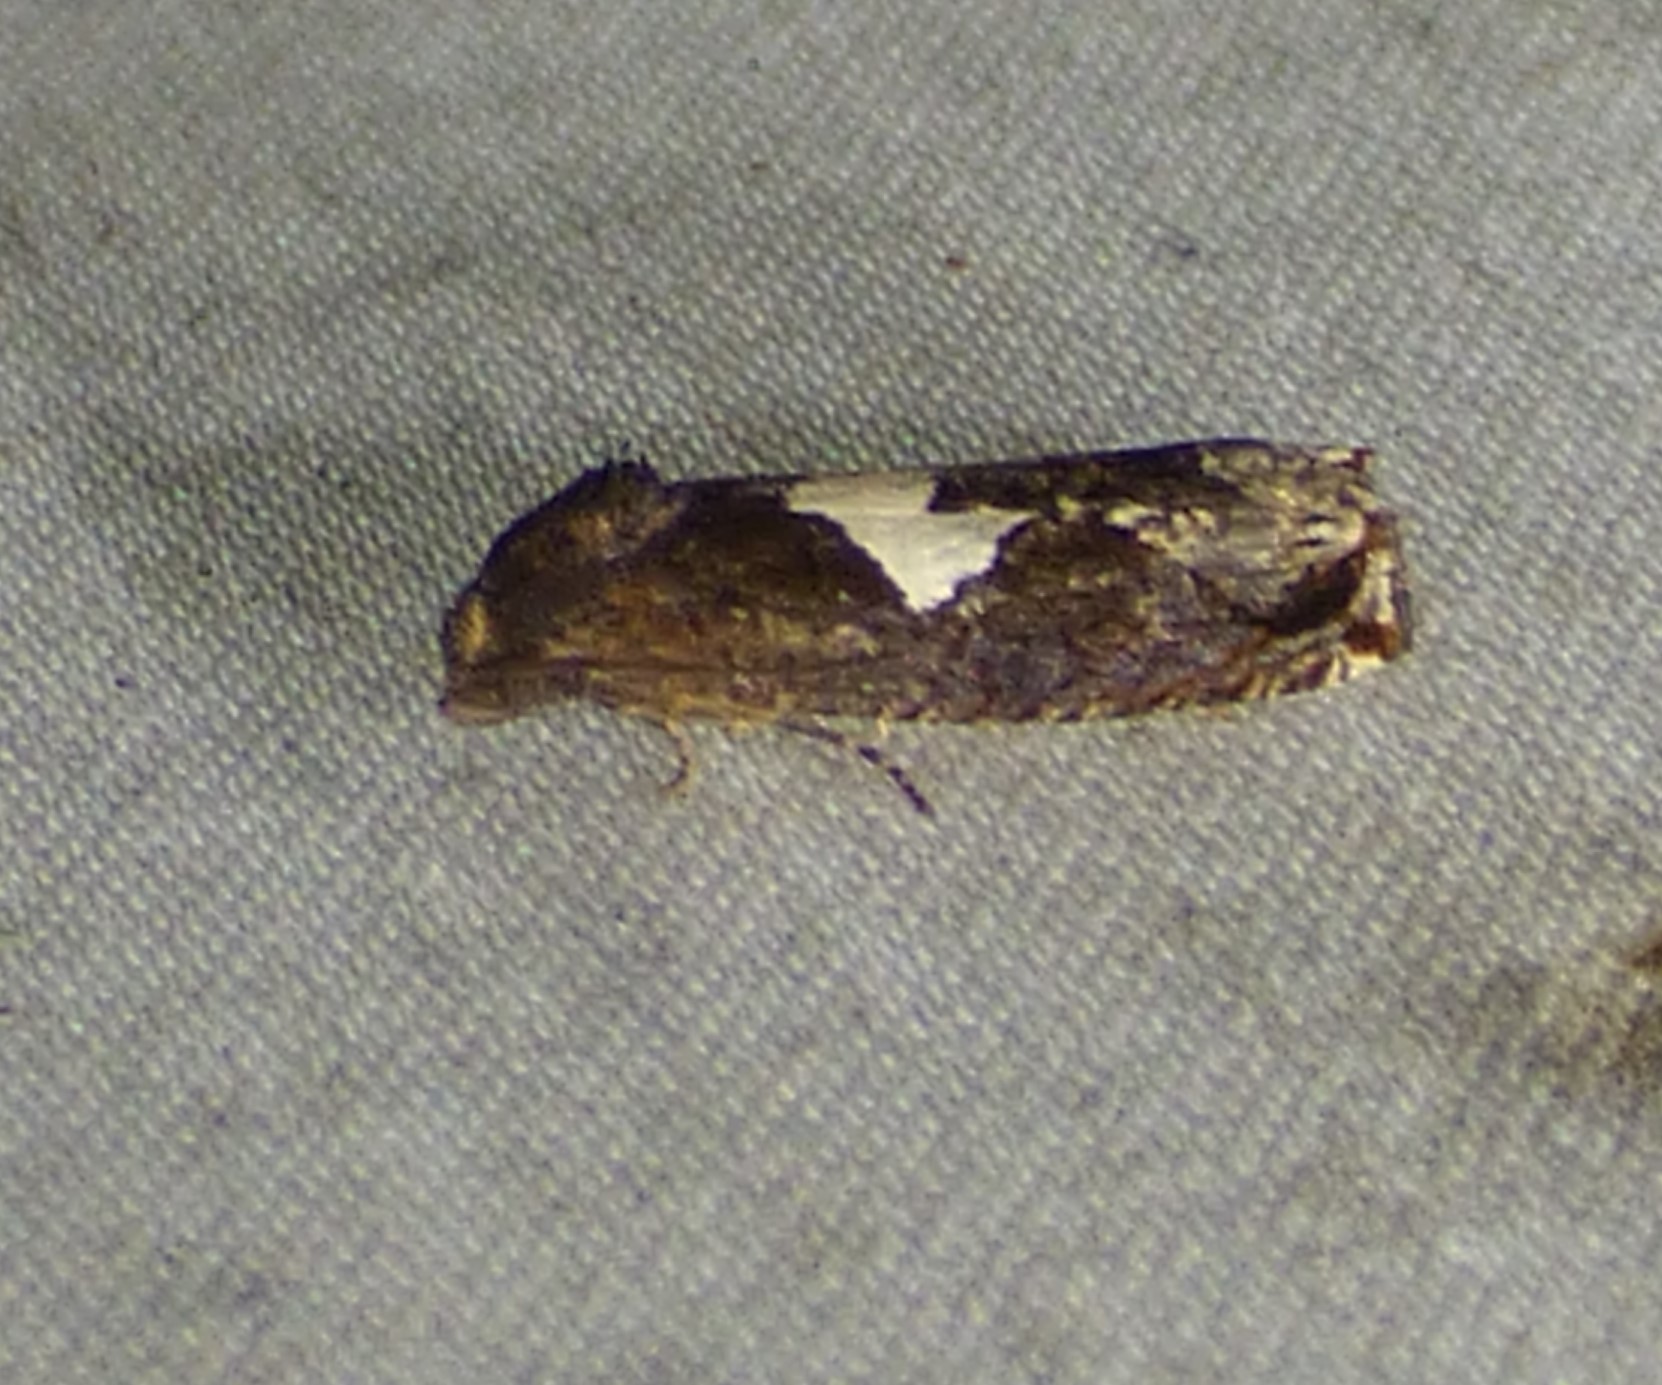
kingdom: Animalia
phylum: Arthropoda
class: Insecta
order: Lepidoptera
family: Tortricidae
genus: Epiblema
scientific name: Epiblema otiosana
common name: Bidens borer moth
